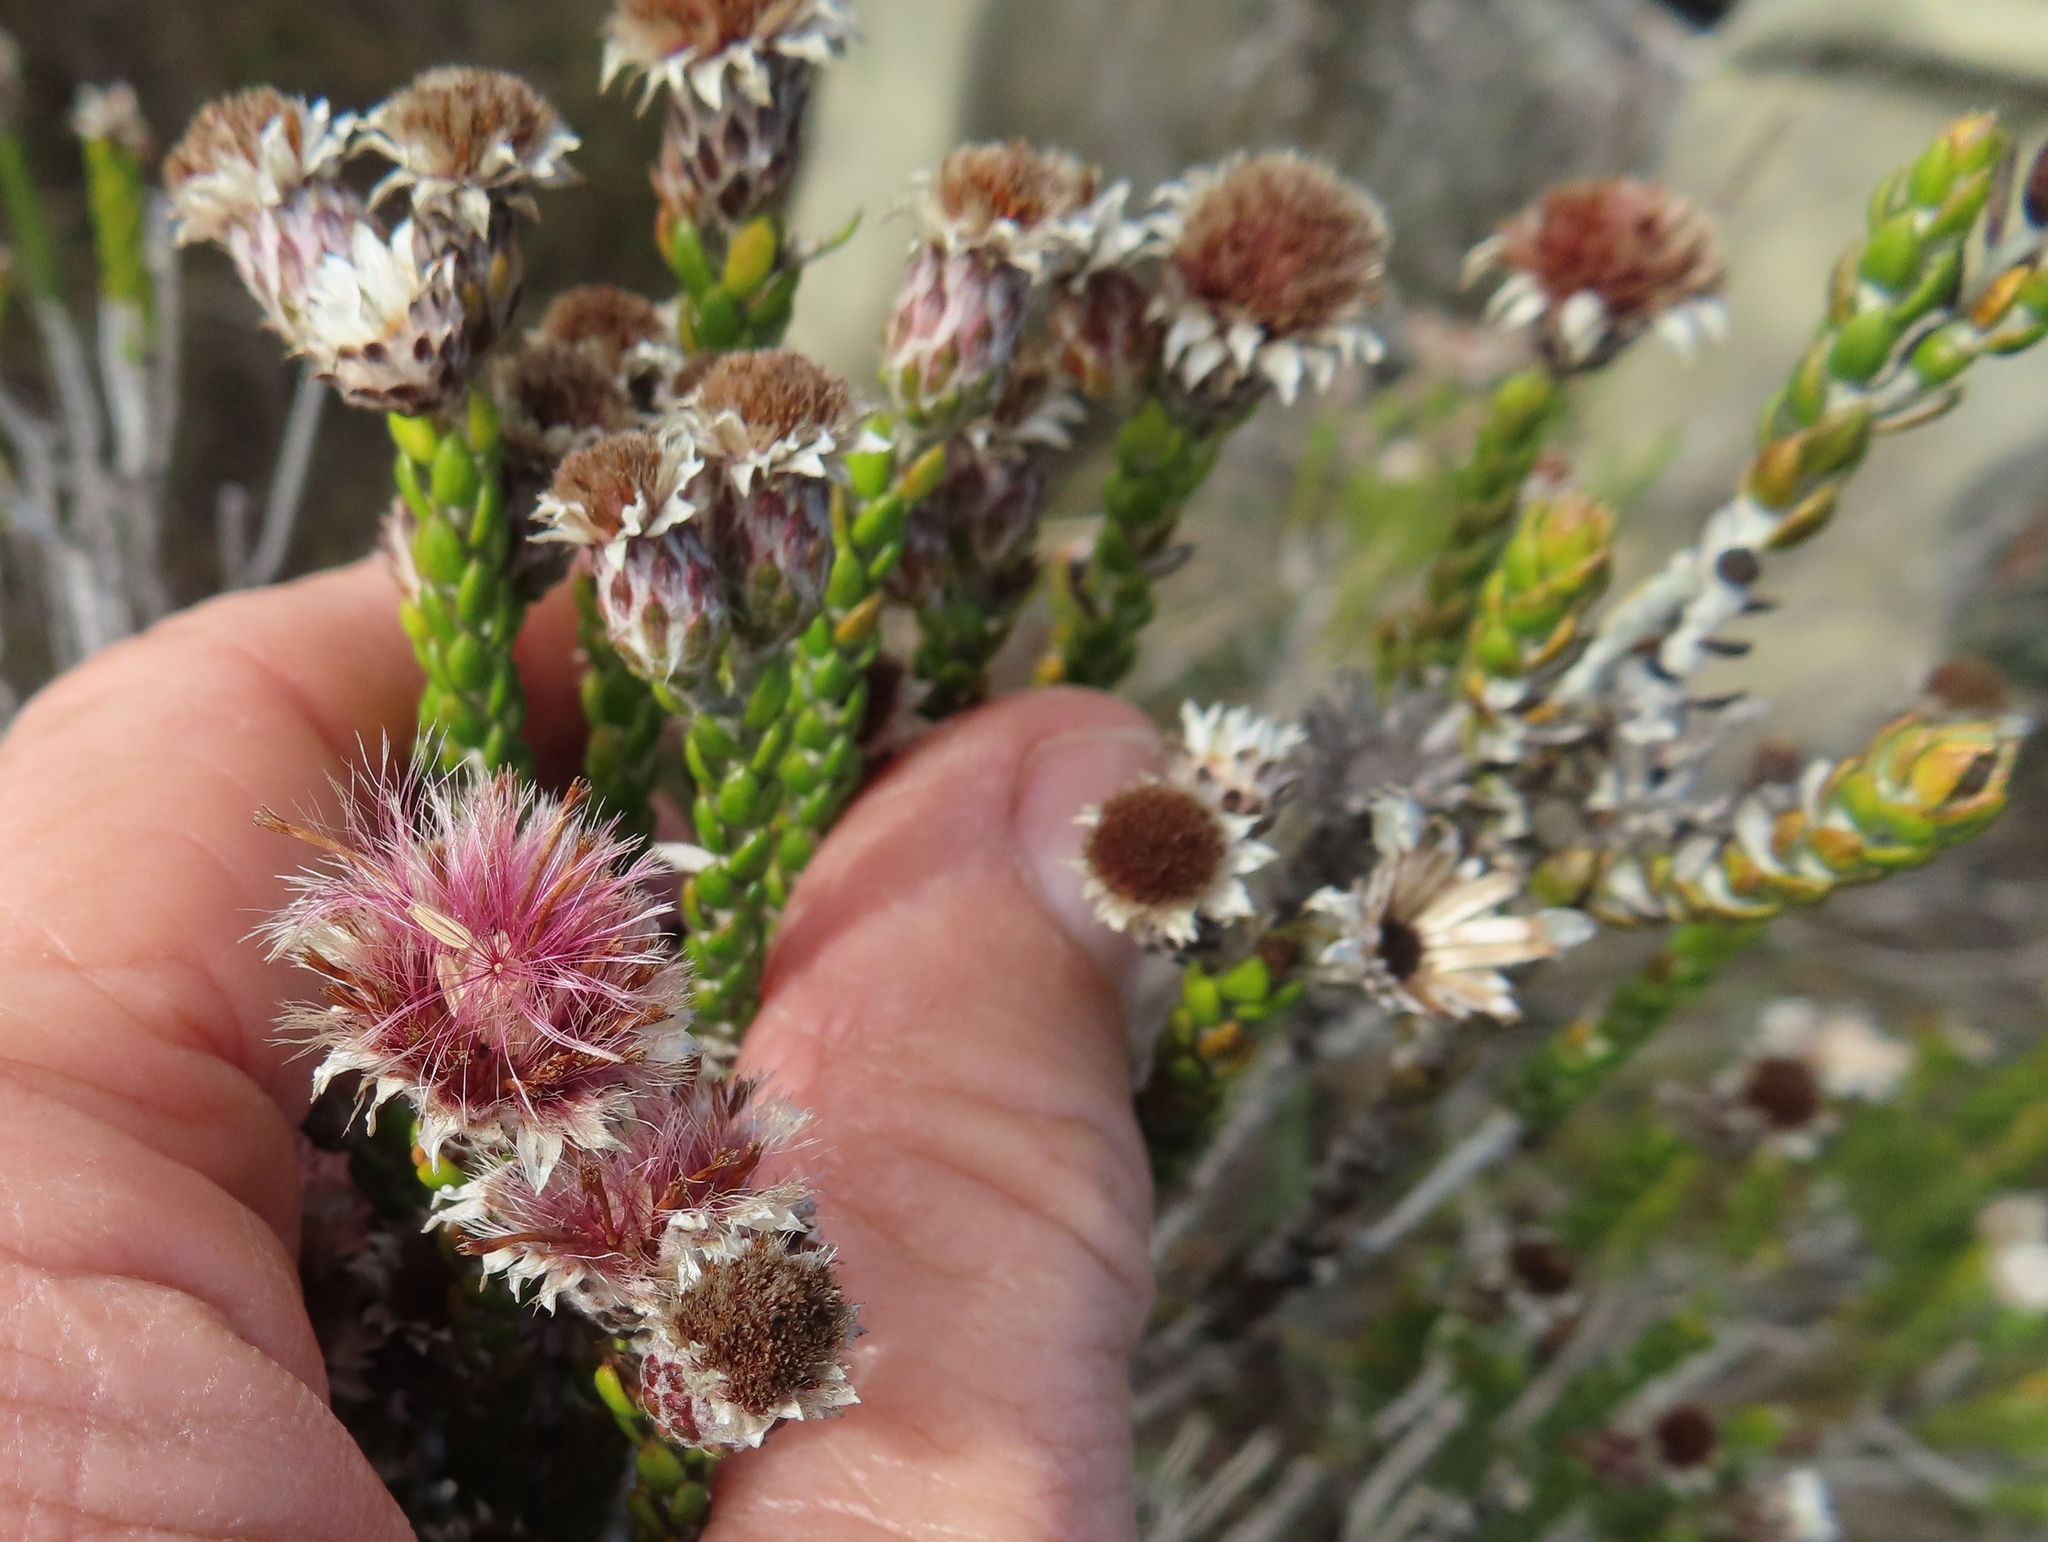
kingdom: Plantae
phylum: Tracheophyta
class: Magnoliopsida
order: Asterales
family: Asteraceae
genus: Lachnospermum
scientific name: Lachnospermum imbricatum
